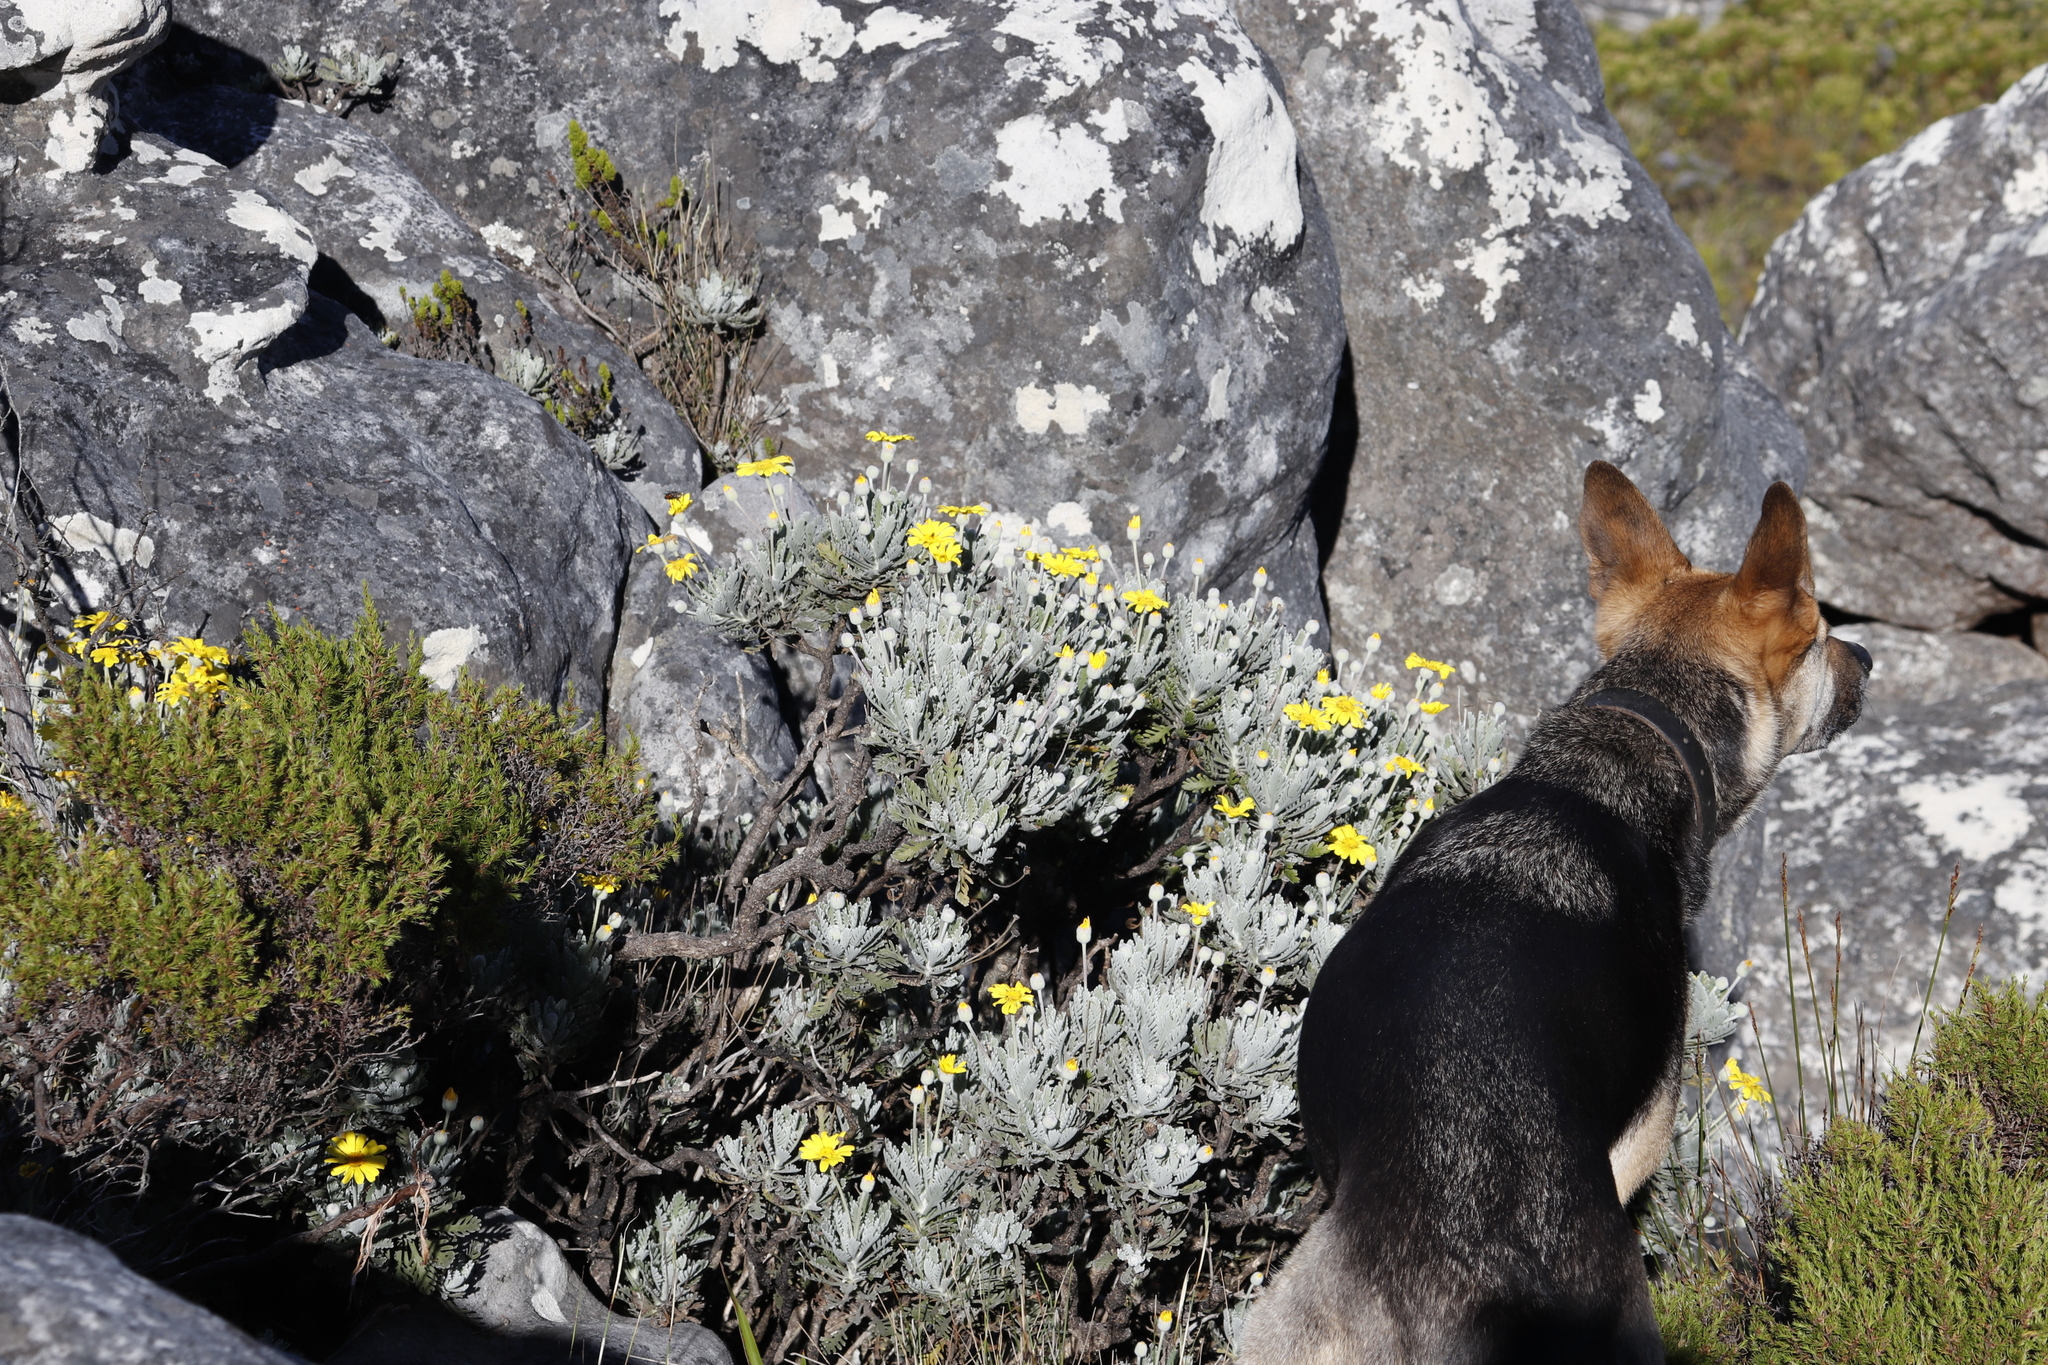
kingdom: Plantae
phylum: Tracheophyta
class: Magnoliopsida
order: Asterales
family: Asteraceae
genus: Euryops
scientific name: Euryops pectinatus
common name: Gray-leaf euryops
